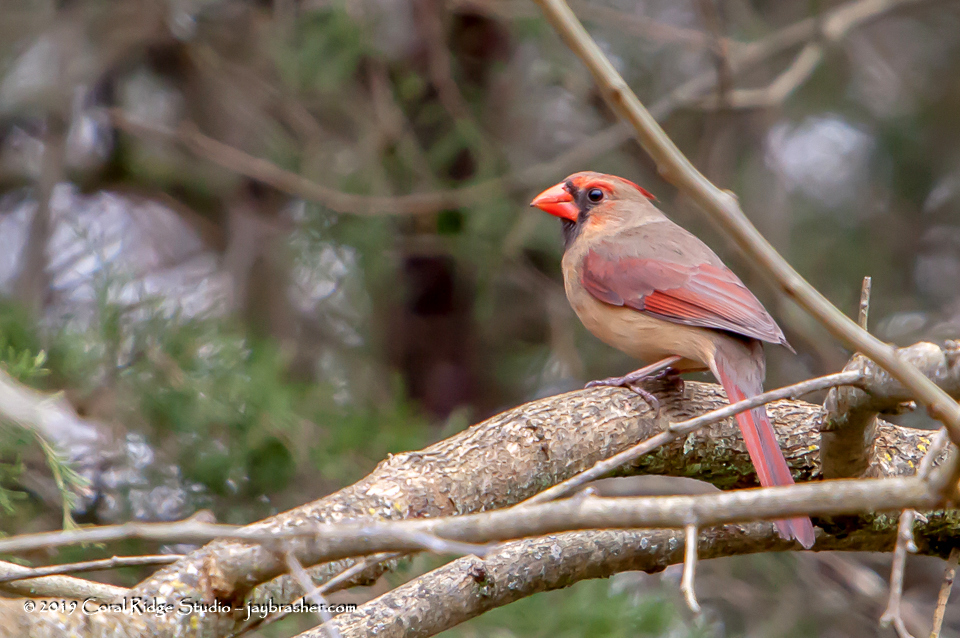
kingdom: Animalia
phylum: Chordata
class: Aves
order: Passeriformes
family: Cardinalidae
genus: Cardinalis
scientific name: Cardinalis cardinalis
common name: Northern cardinal
